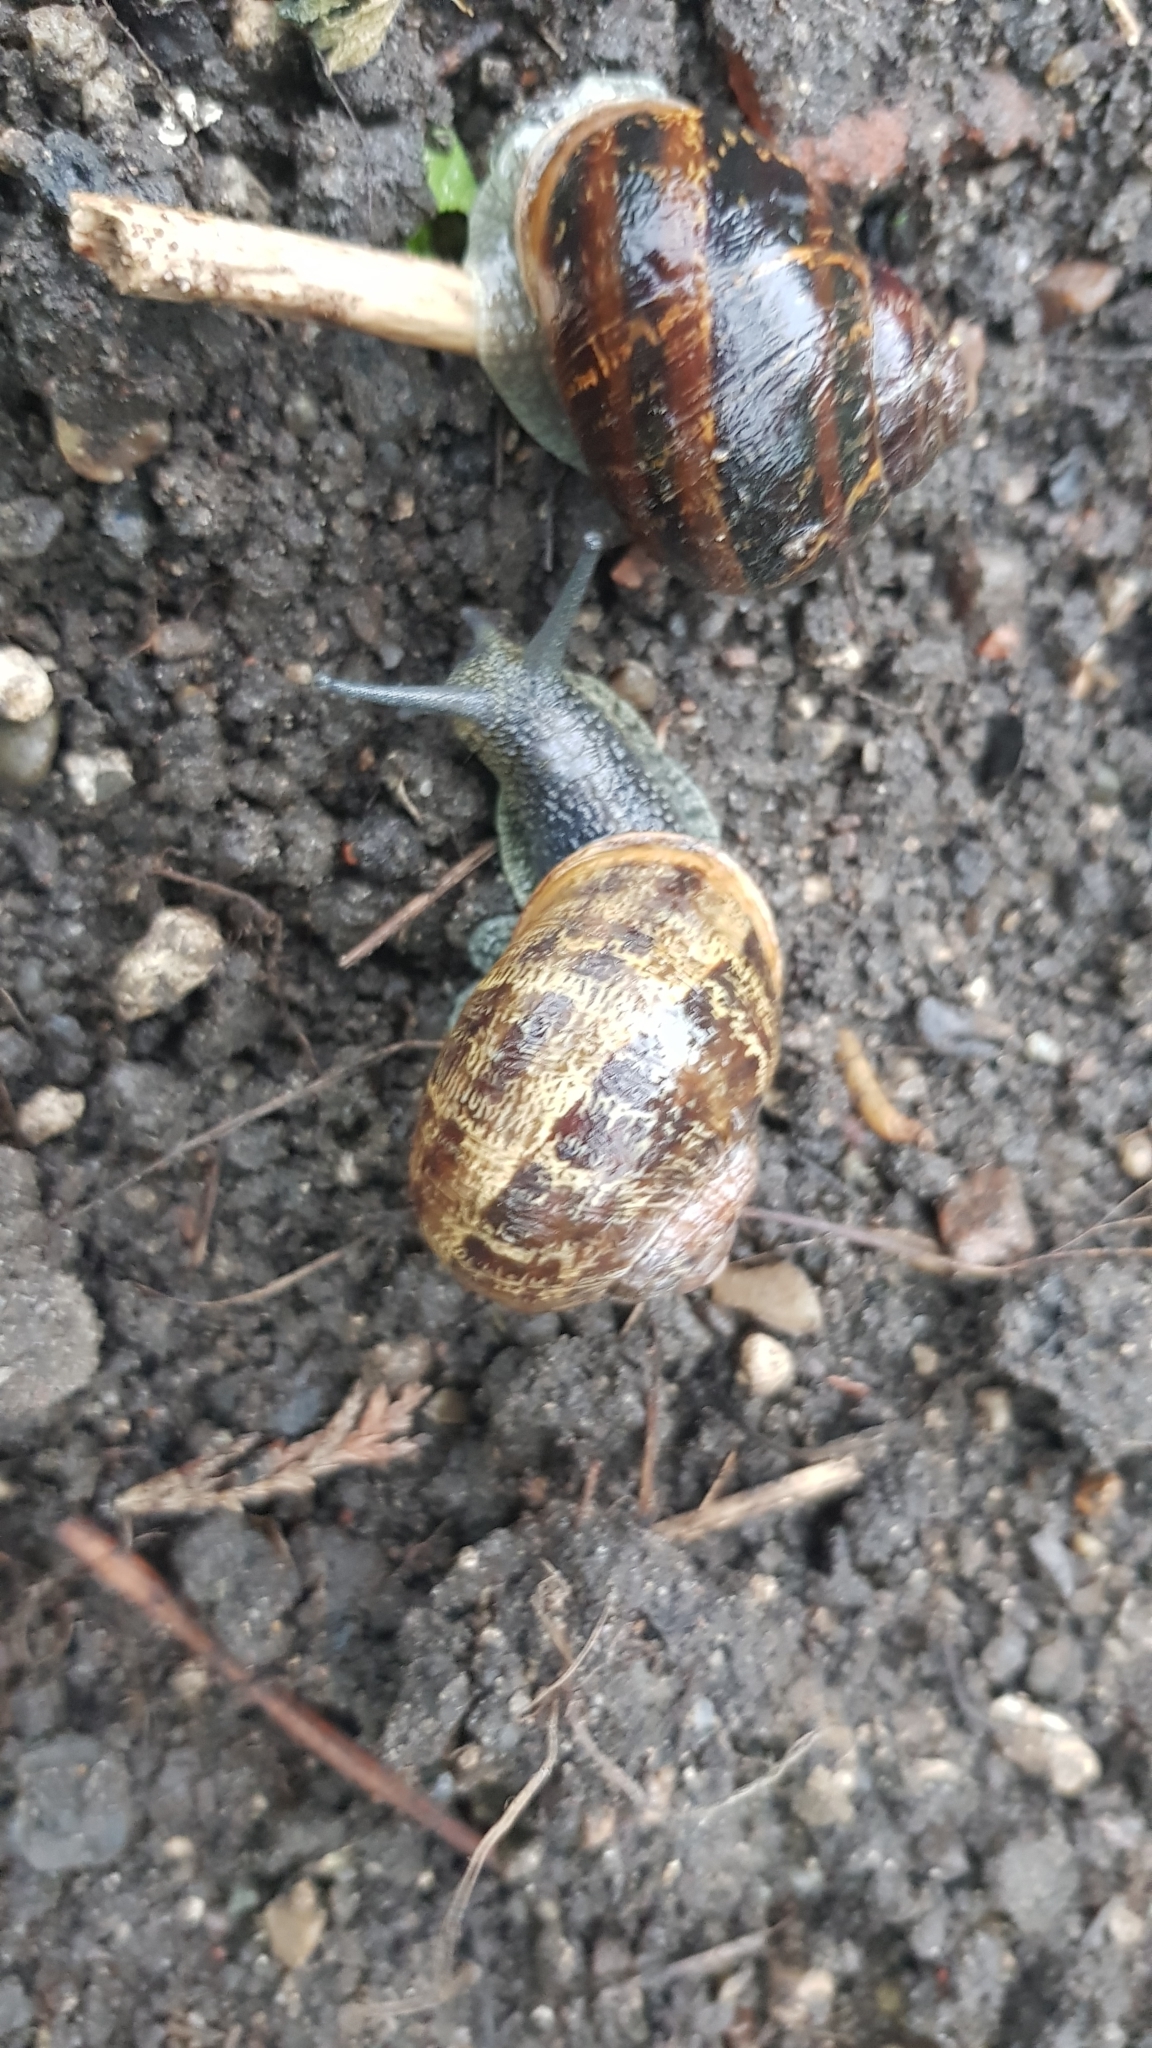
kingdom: Animalia
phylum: Mollusca
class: Gastropoda
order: Stylommatophora
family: Helicidae
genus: Cornu
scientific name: Cornu aspersum
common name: Brown garden snail
